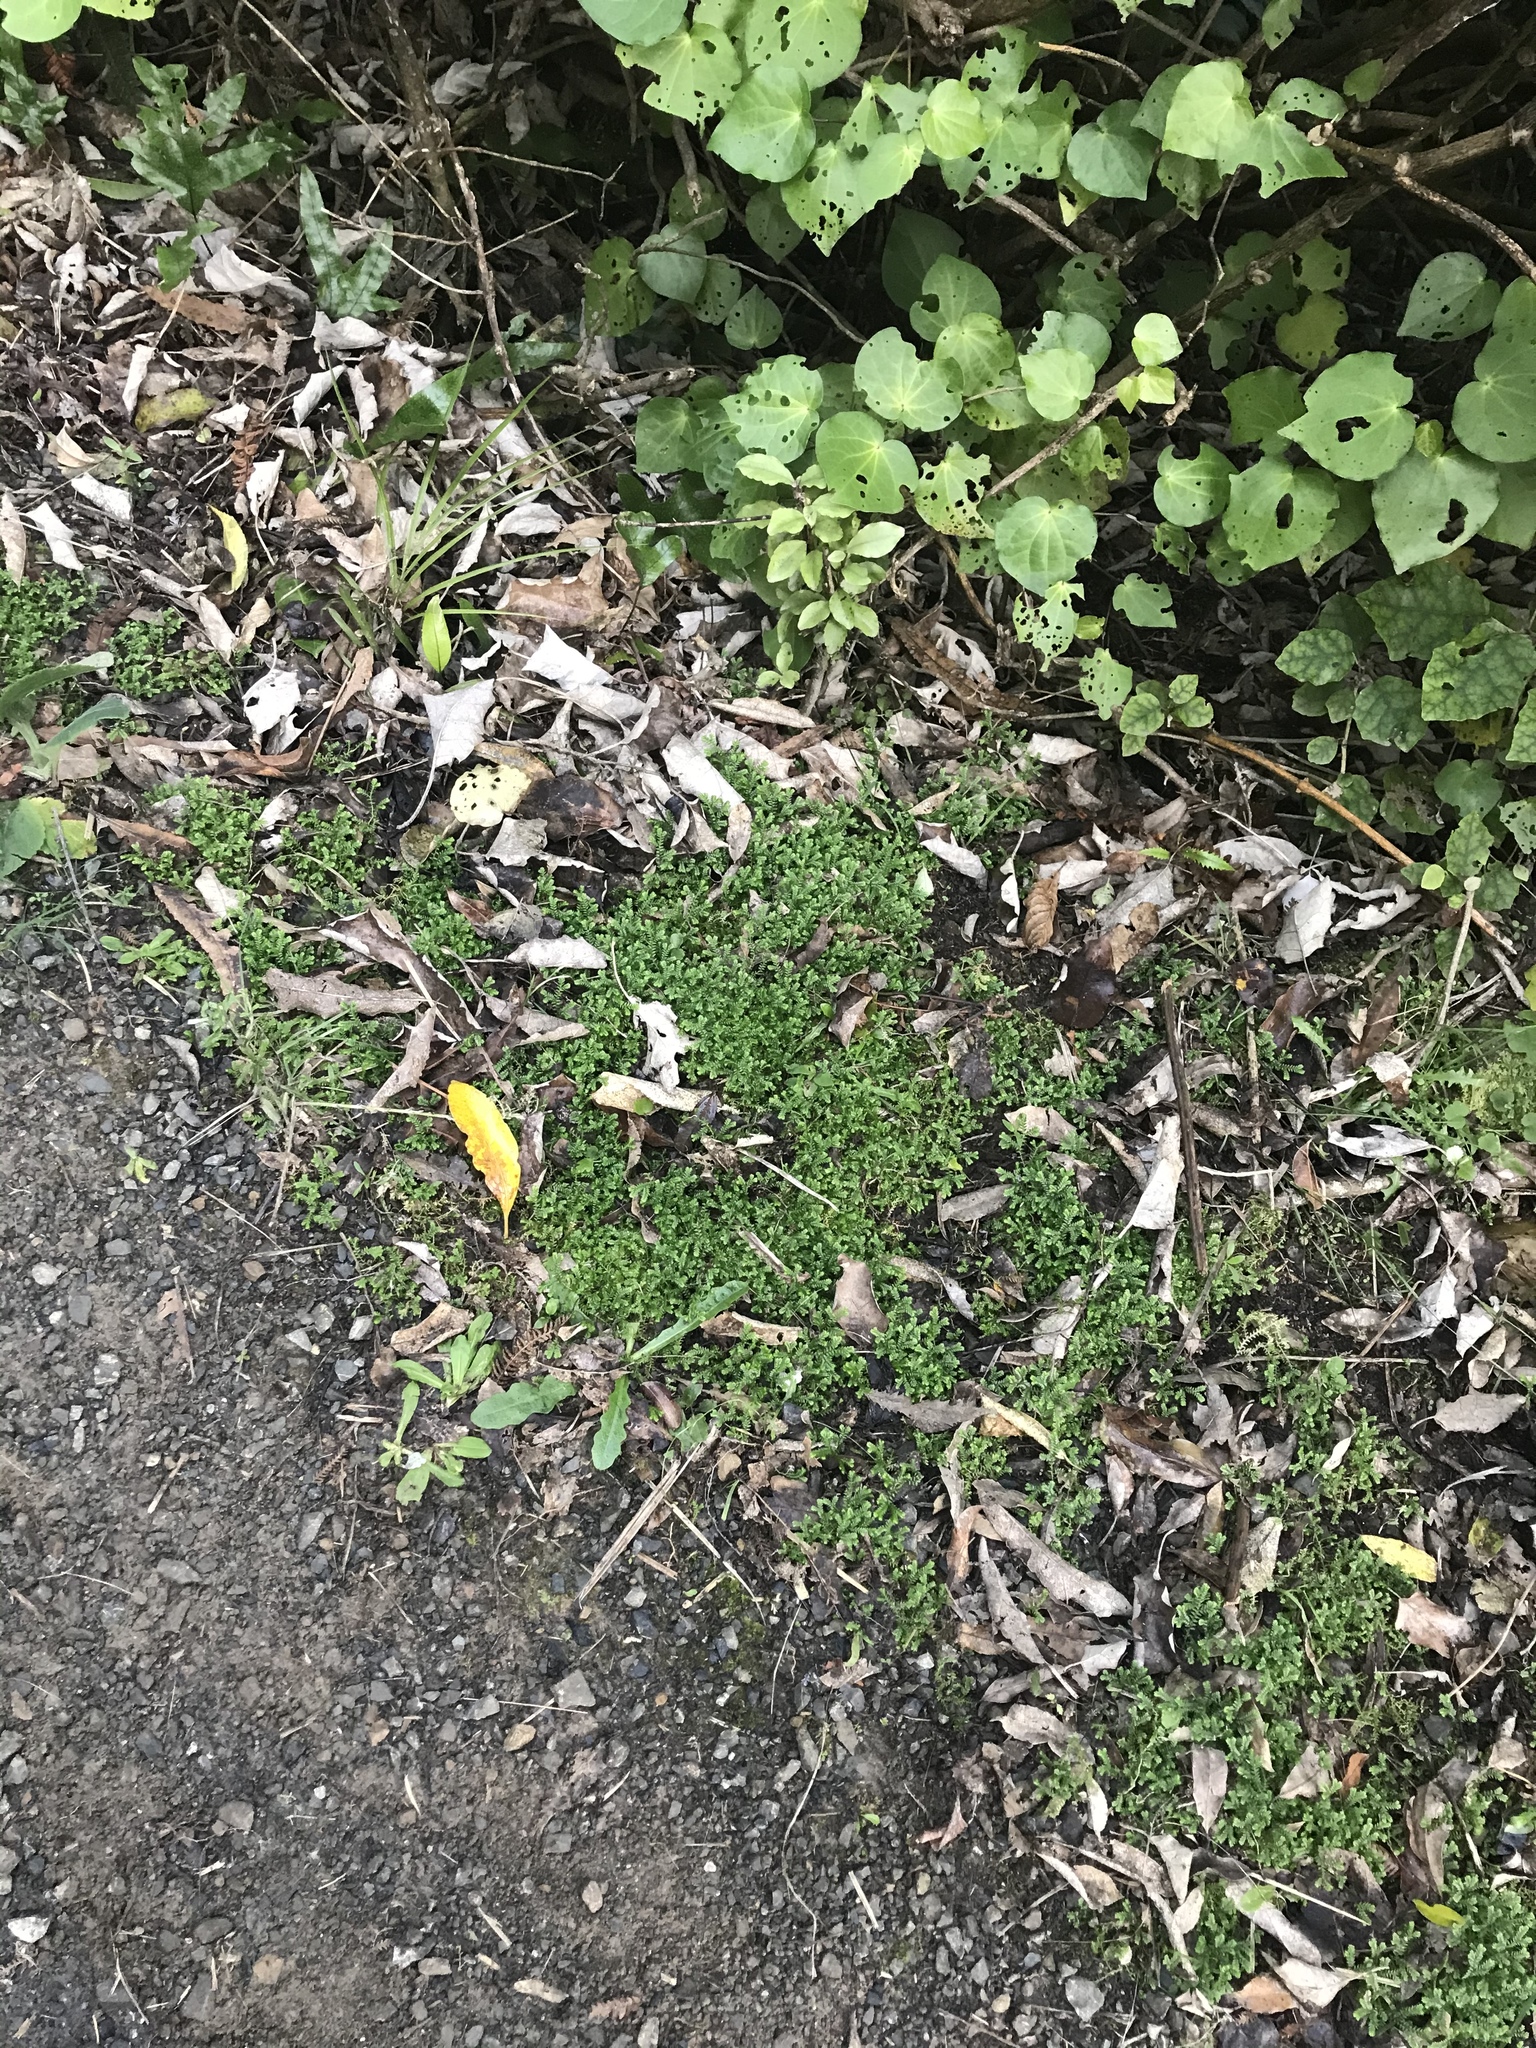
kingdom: Plantae
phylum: Tracheophyta
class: Lycopodiopsida
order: Selaginellales
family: Selaginellaceae
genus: Selaginella
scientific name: Selaginella kraussiana
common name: Krauss' spikemoss
